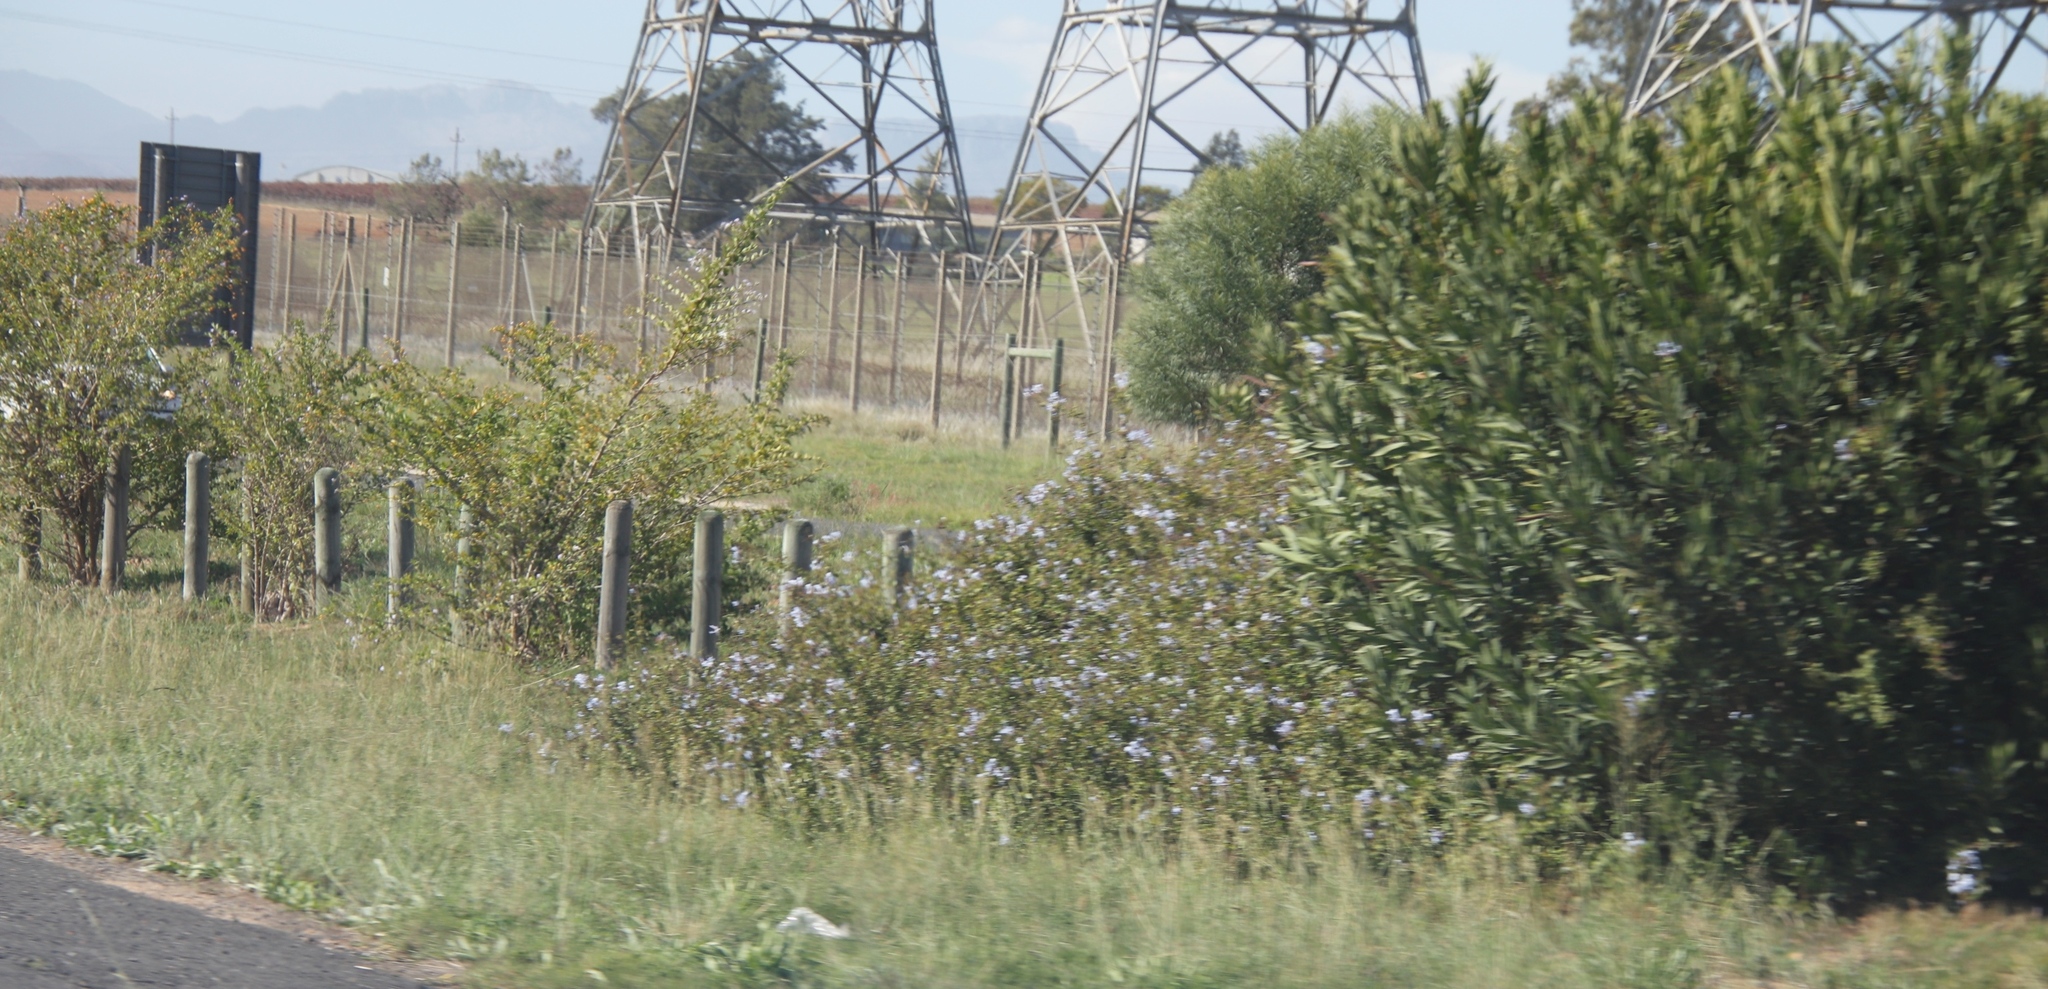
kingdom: Plantae
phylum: Tracheophyta
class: Magnoliopsida
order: Caryophyllales
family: Plumbaginaceae
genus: Plumbago
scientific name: Plumbago auriculata
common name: Cape leadwort
